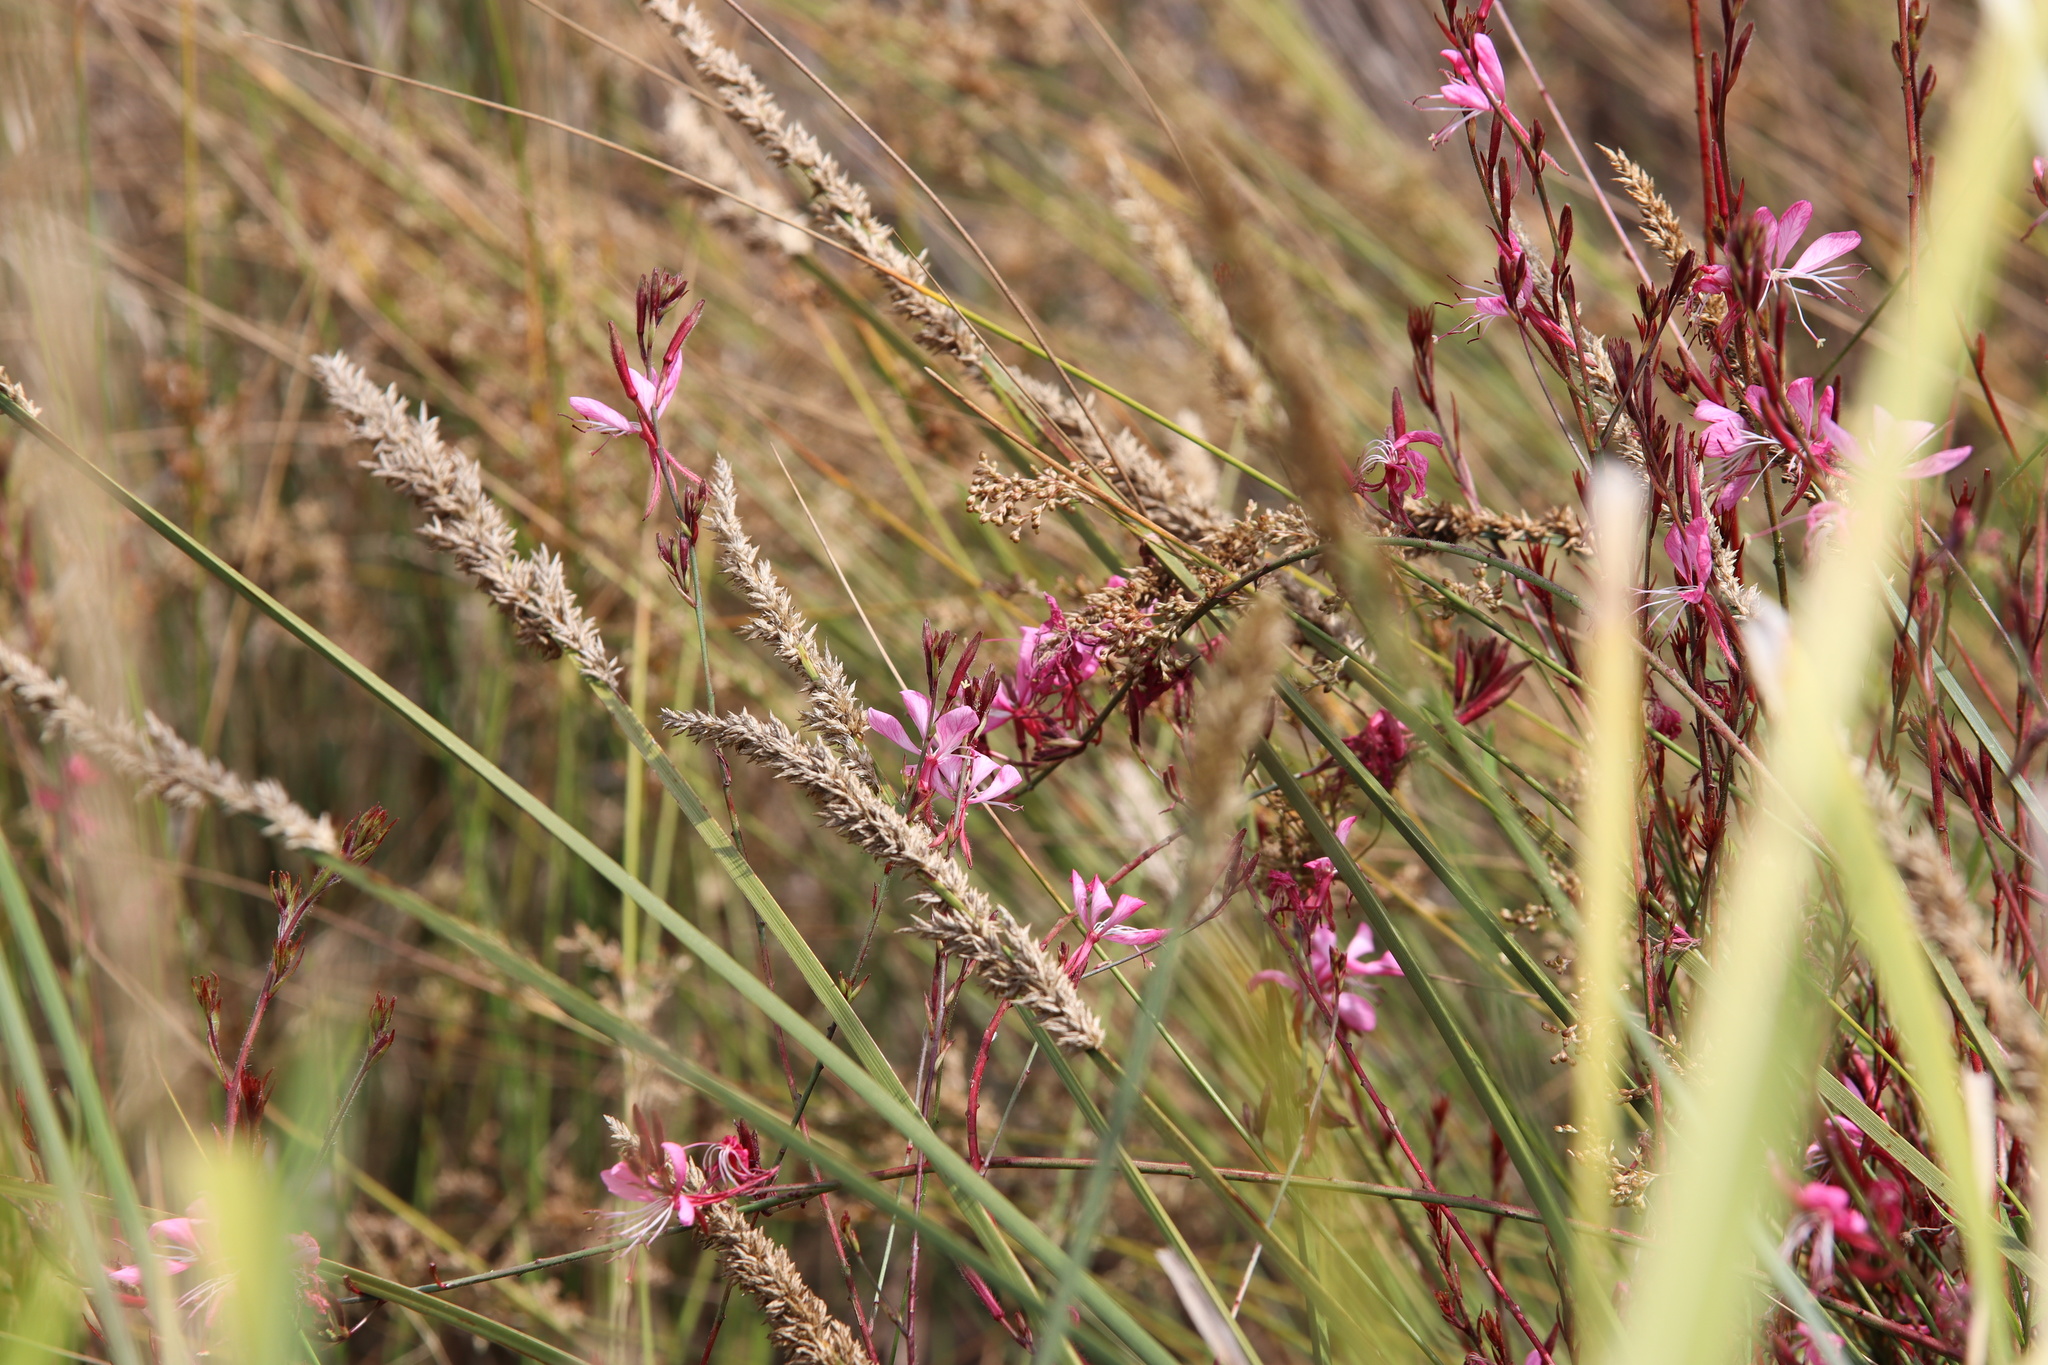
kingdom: Plantae
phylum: Tracheophyta
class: Magnoliopsida
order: Myrtales
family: Onagraceae
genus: Oenothera
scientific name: Oenothera lindheimeri
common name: Lindheimer's beeblossom
